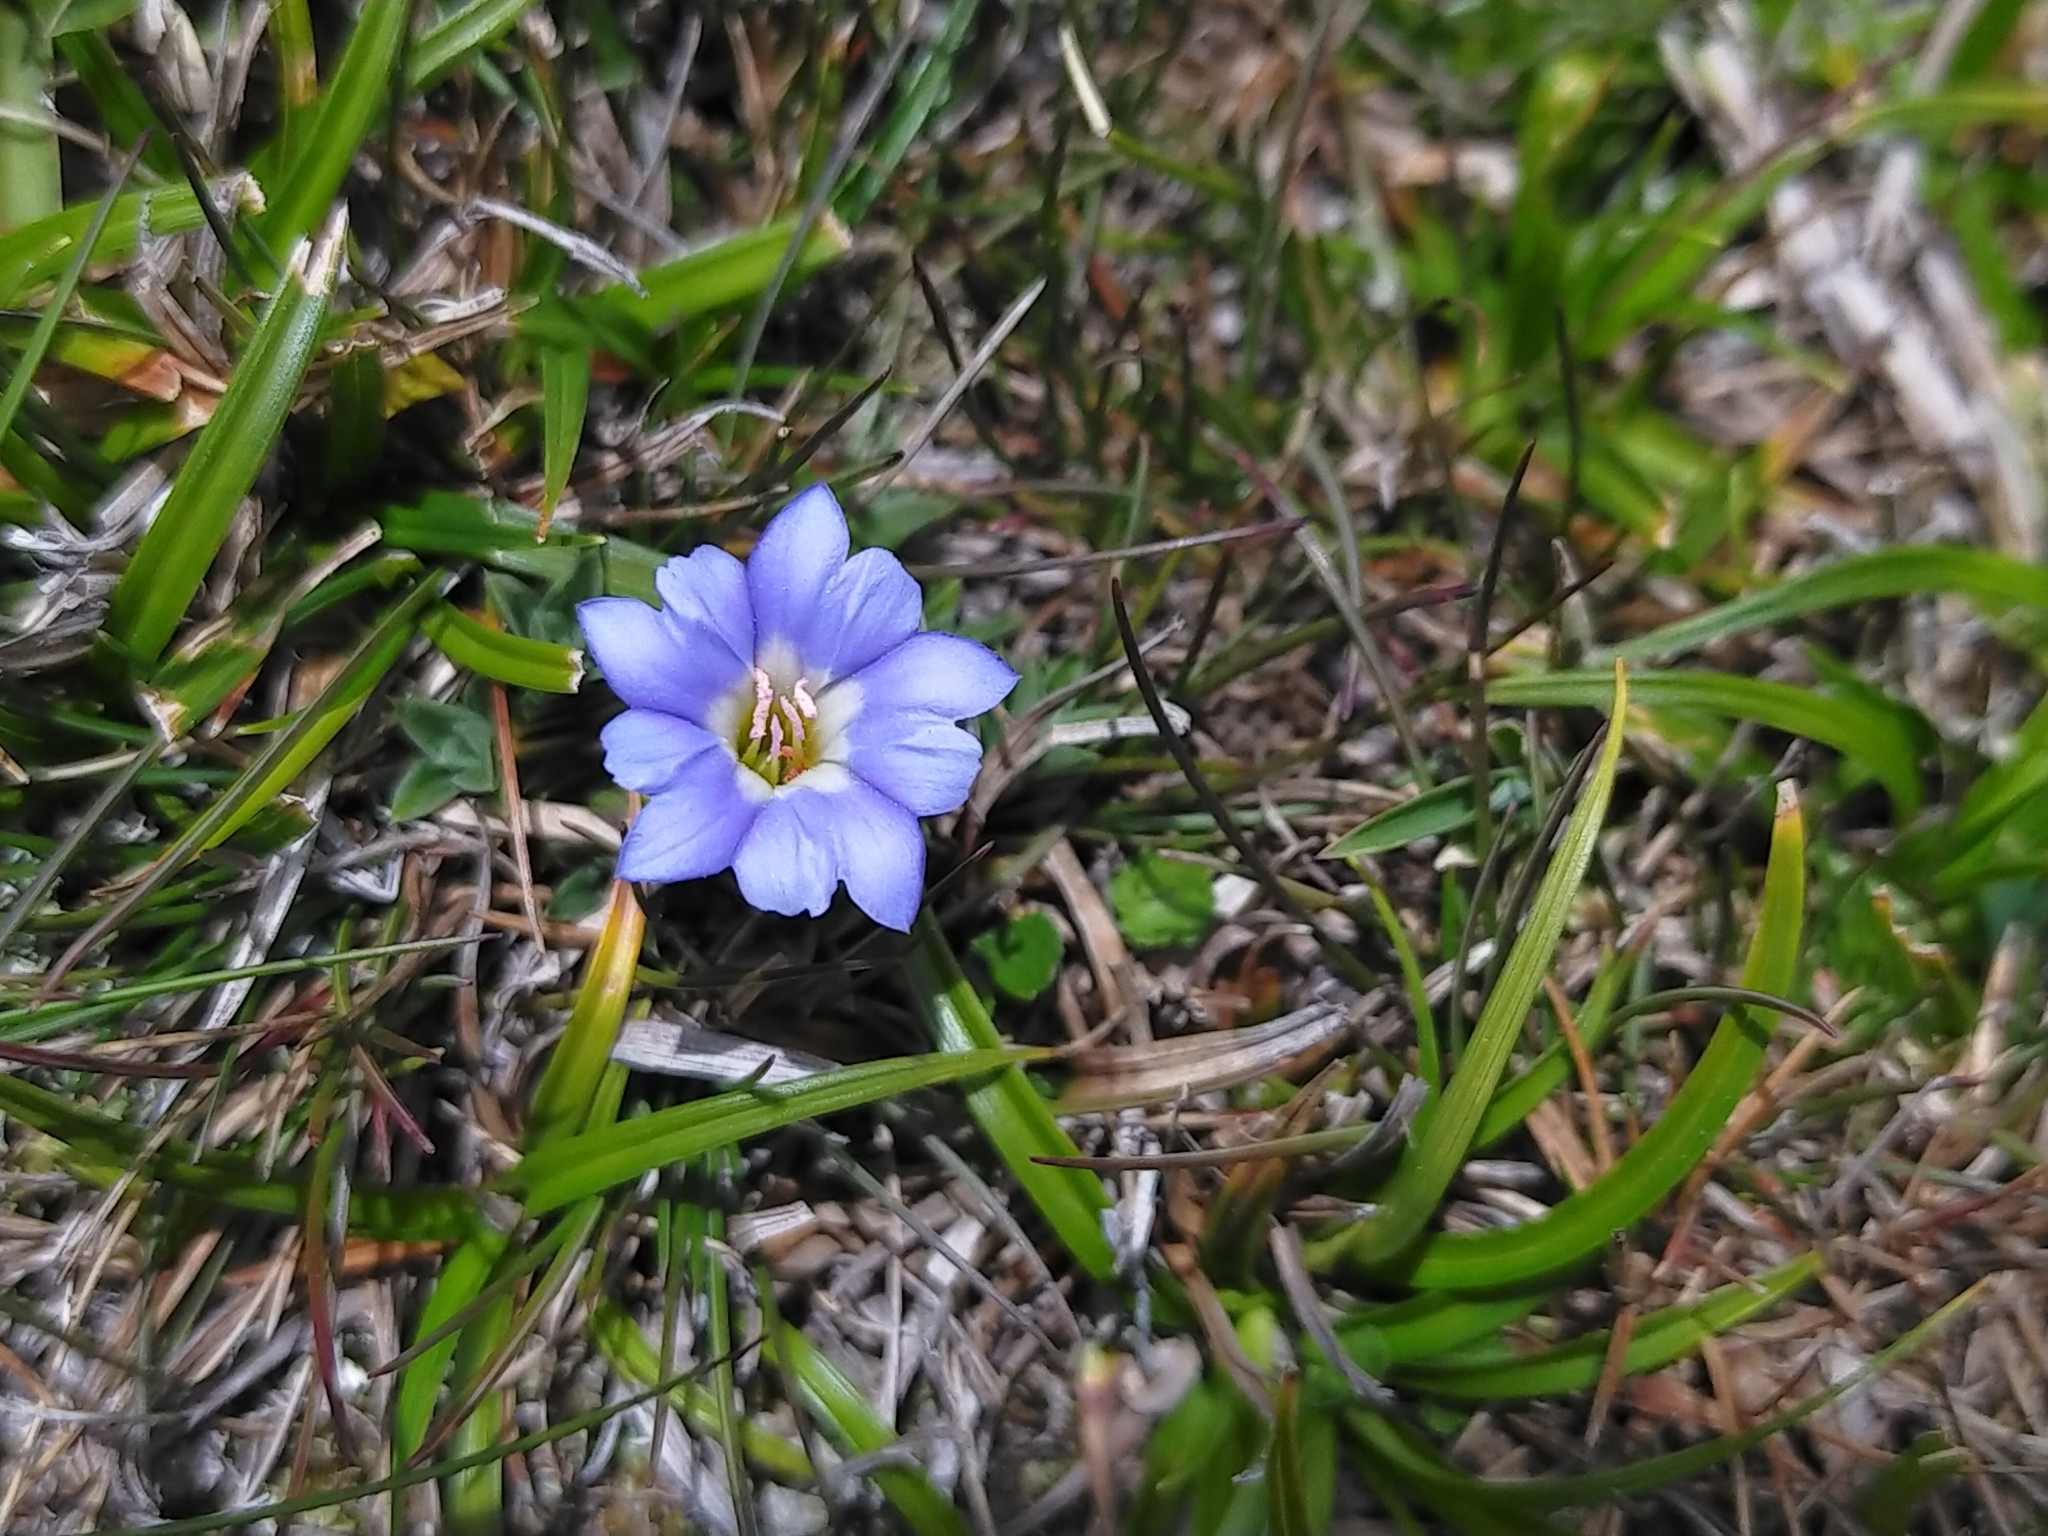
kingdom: Plantae
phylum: Tracheophyta
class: Magnoliopsida
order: Gentianales
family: Gentianaceae
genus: Gentiana
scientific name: Gentiana arisanensis
